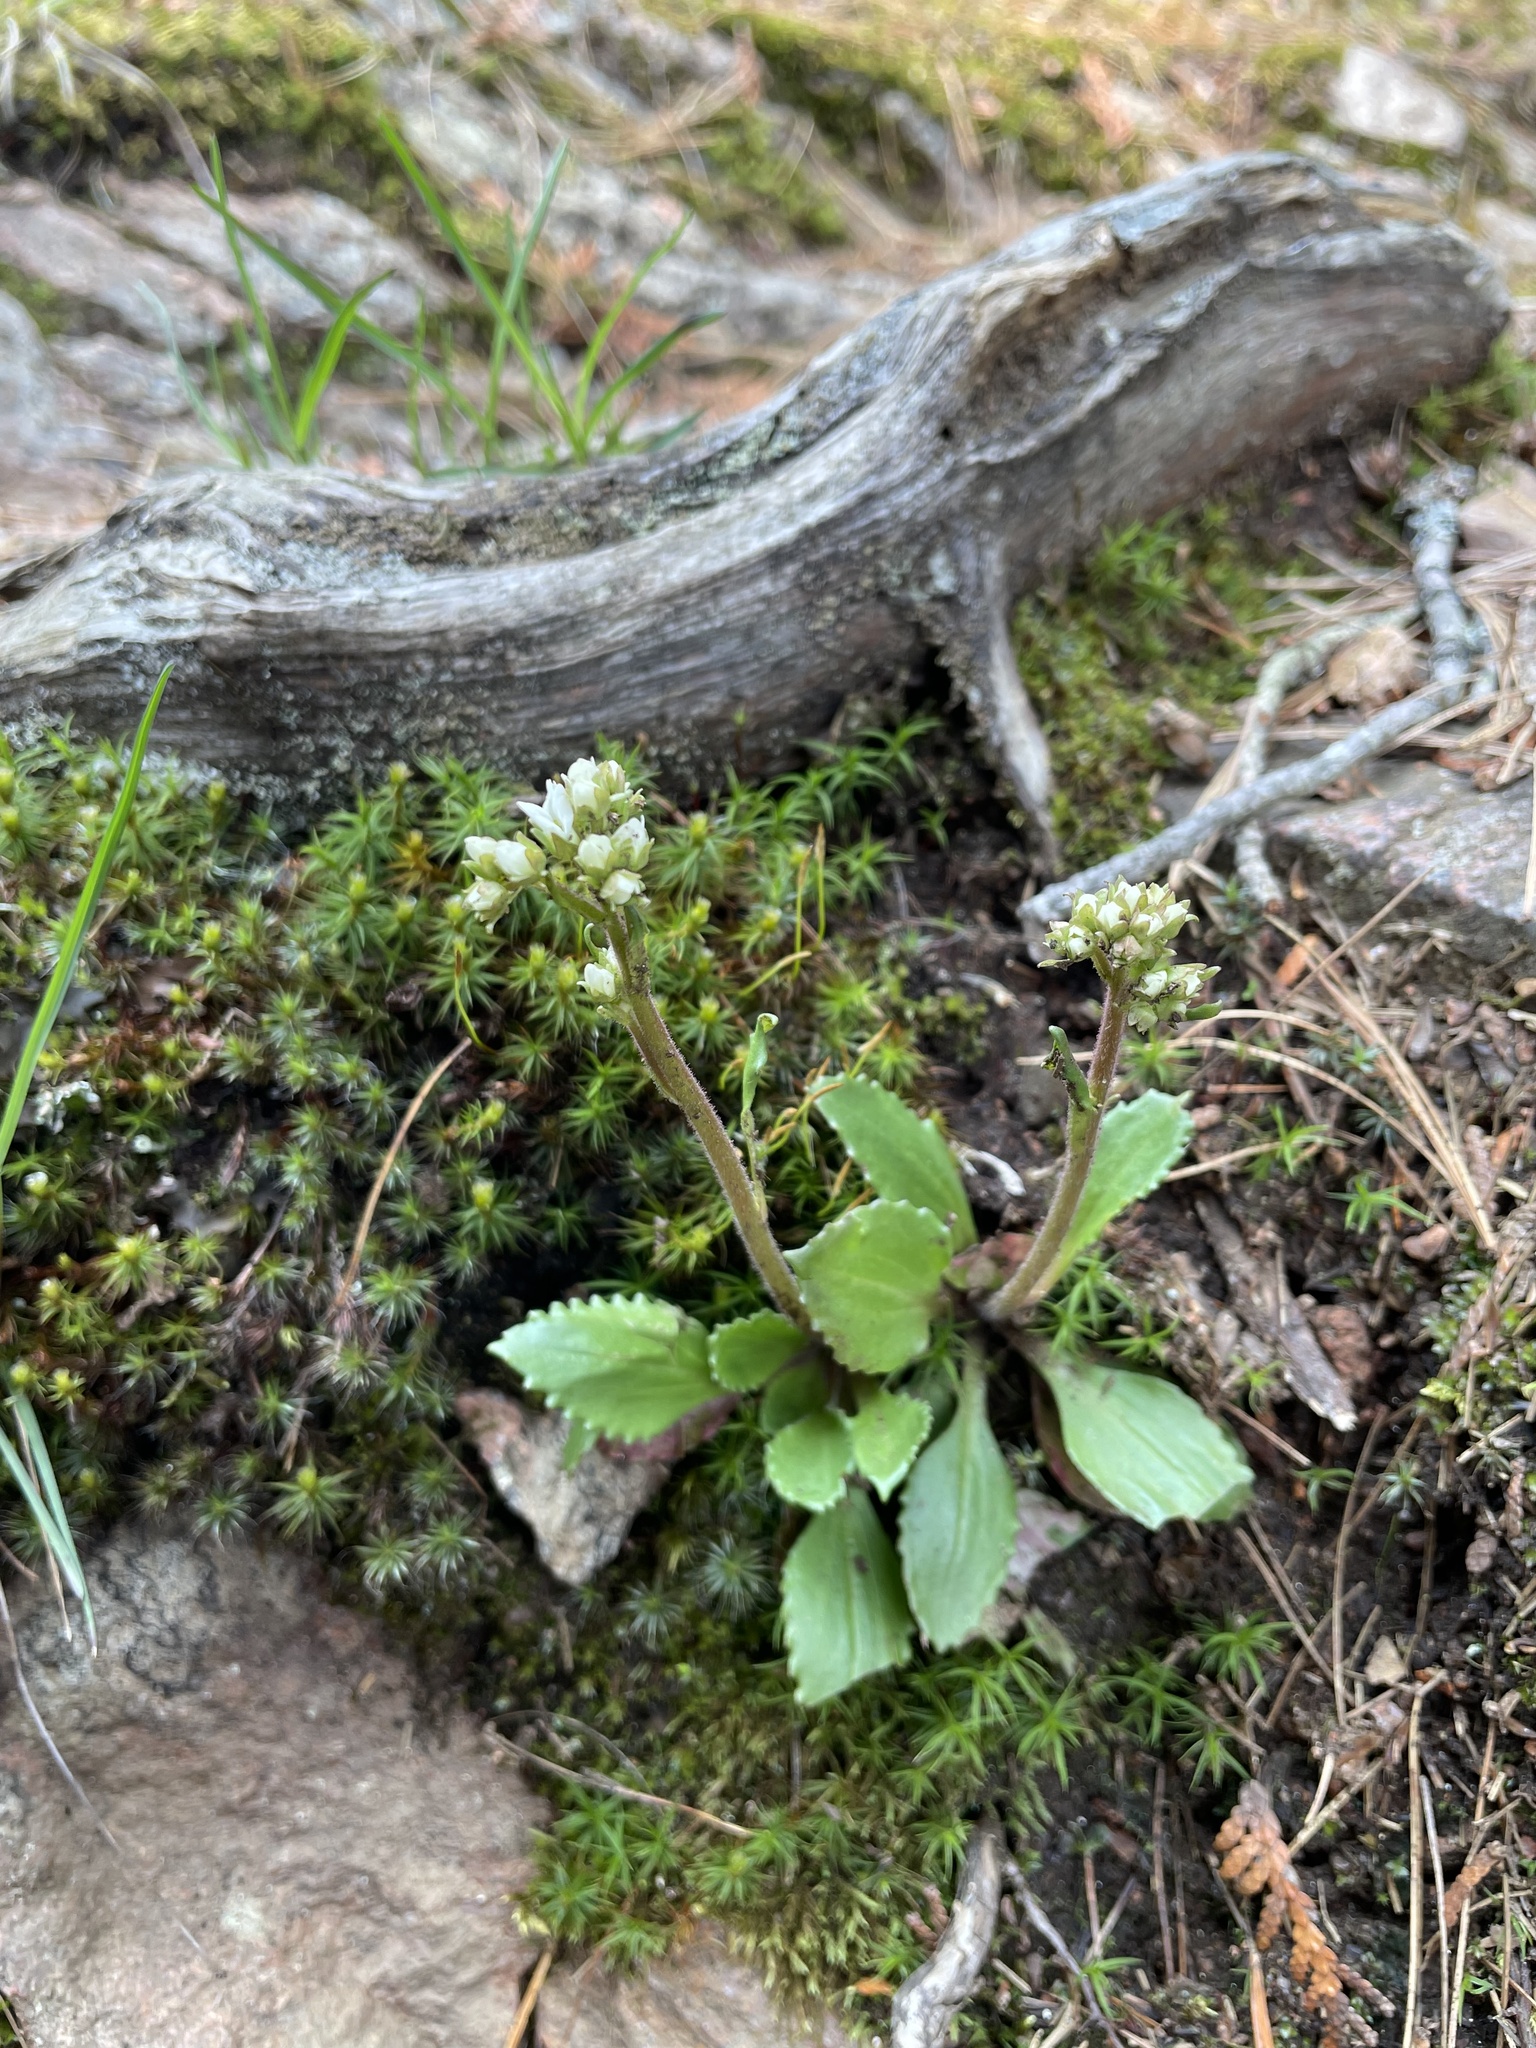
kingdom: Plantae
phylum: Tracheophyta
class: Magnoliopsida
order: Saxifragales
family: Saxifragaceae
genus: Micranthes
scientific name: Micranthes virginiensis
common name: Early saxifrage
